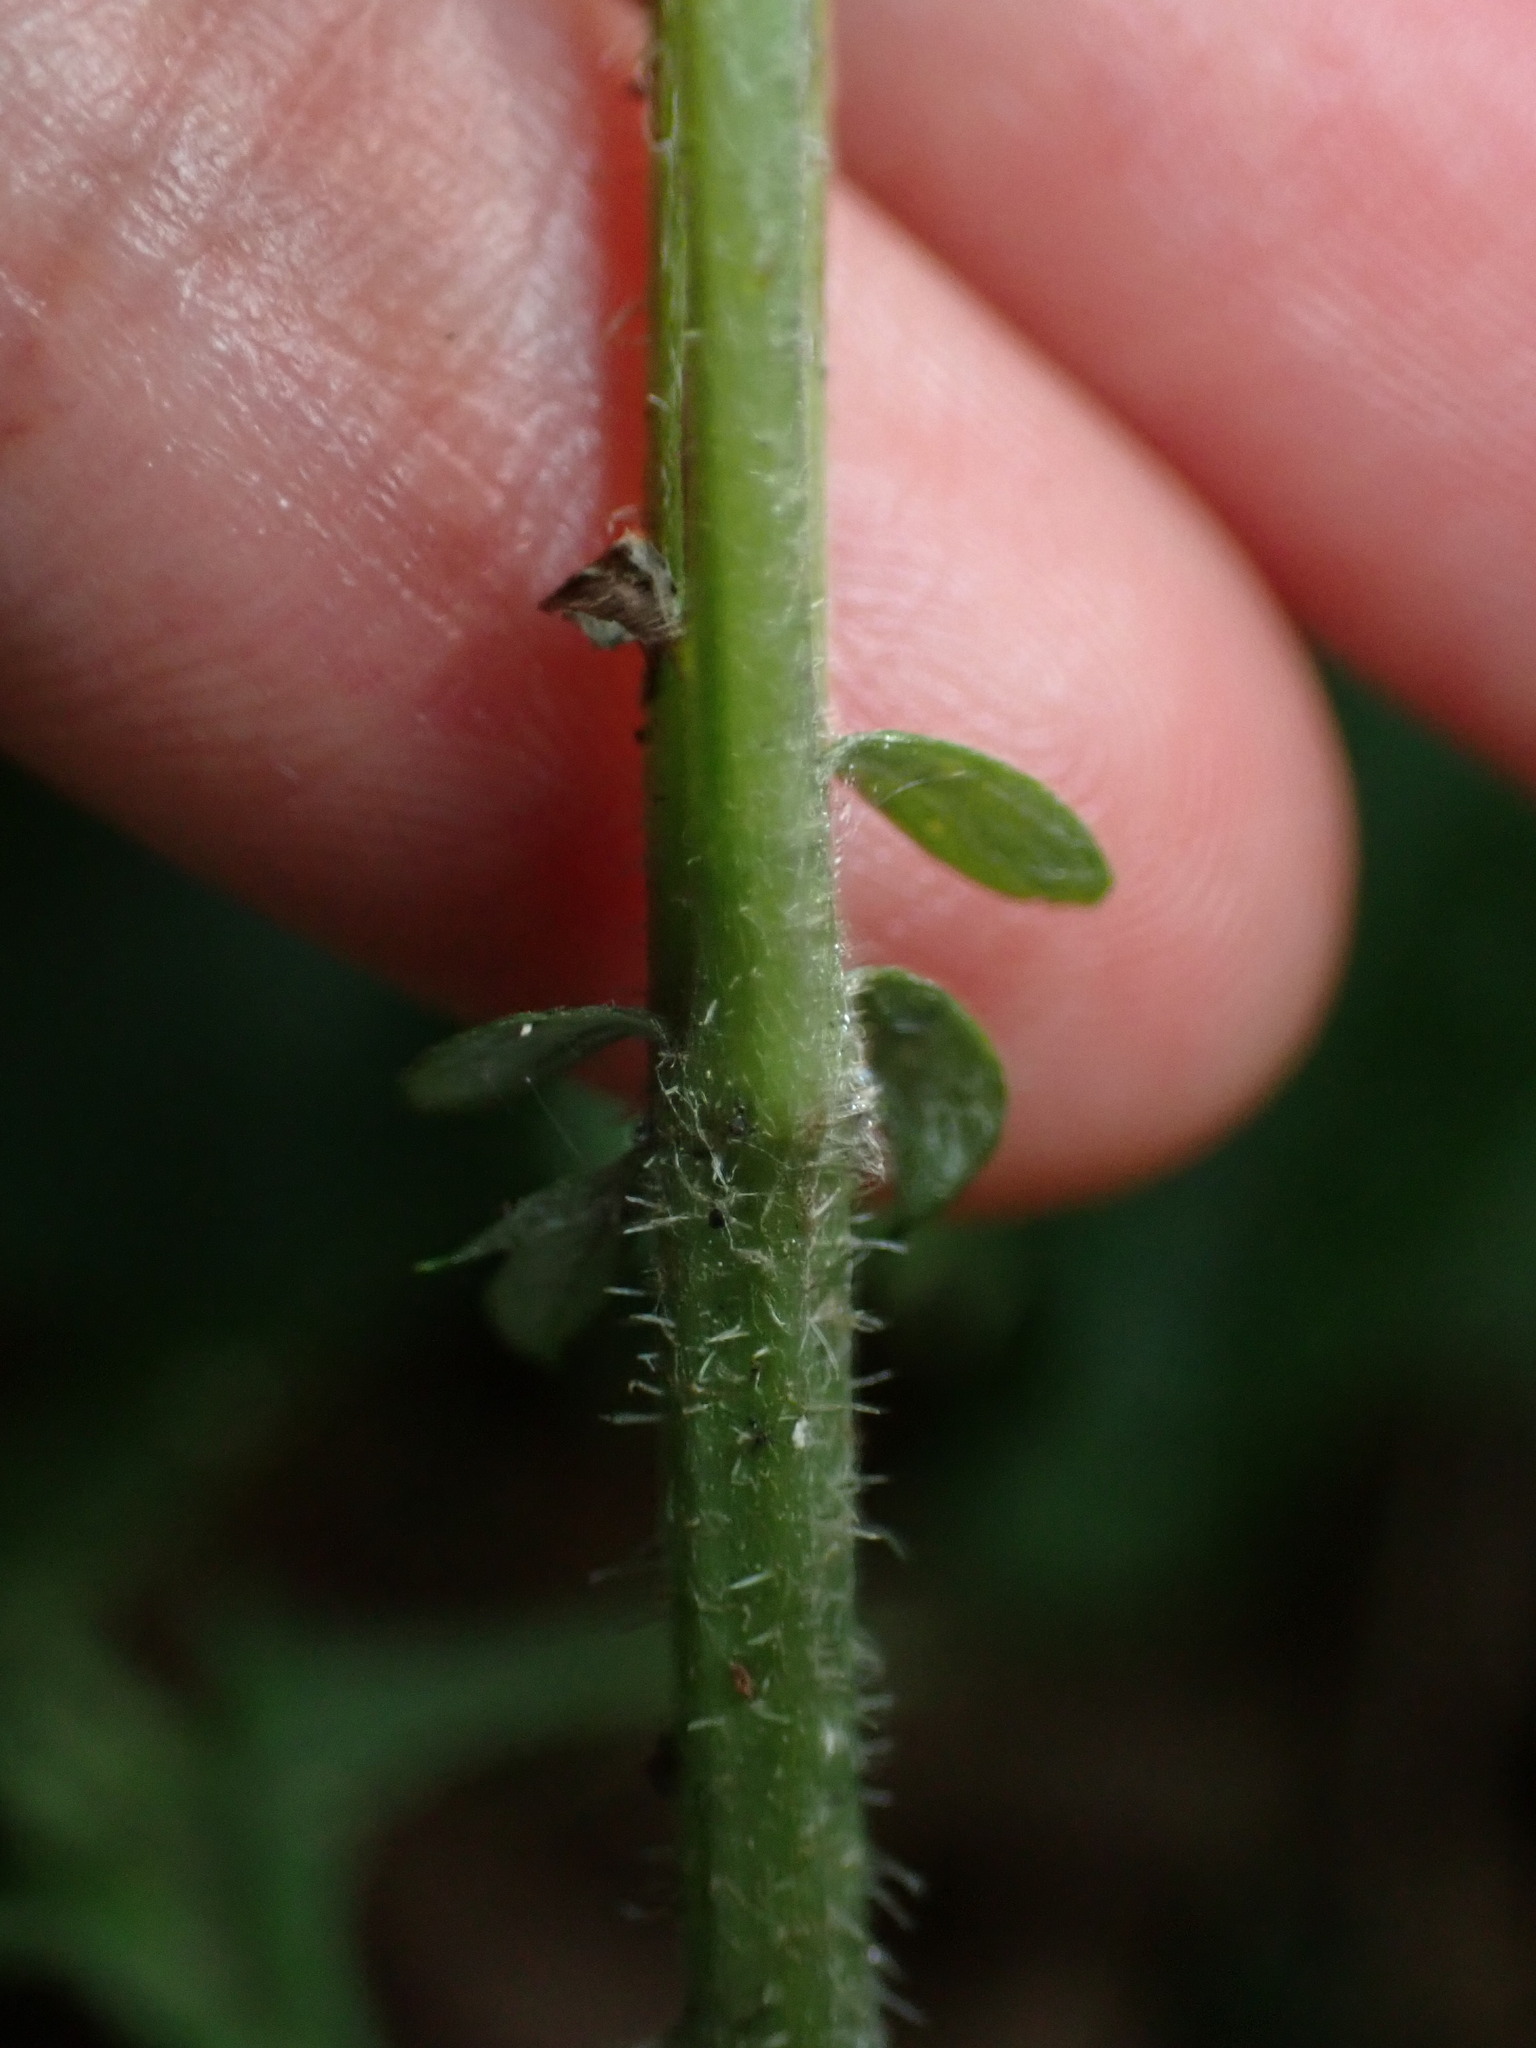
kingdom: Plantae
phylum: Tracheophyta
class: Magnoliopsida
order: Asterales
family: Asteraceae
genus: Artemisia
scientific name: Artemisia vulgaris
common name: Mugwort
